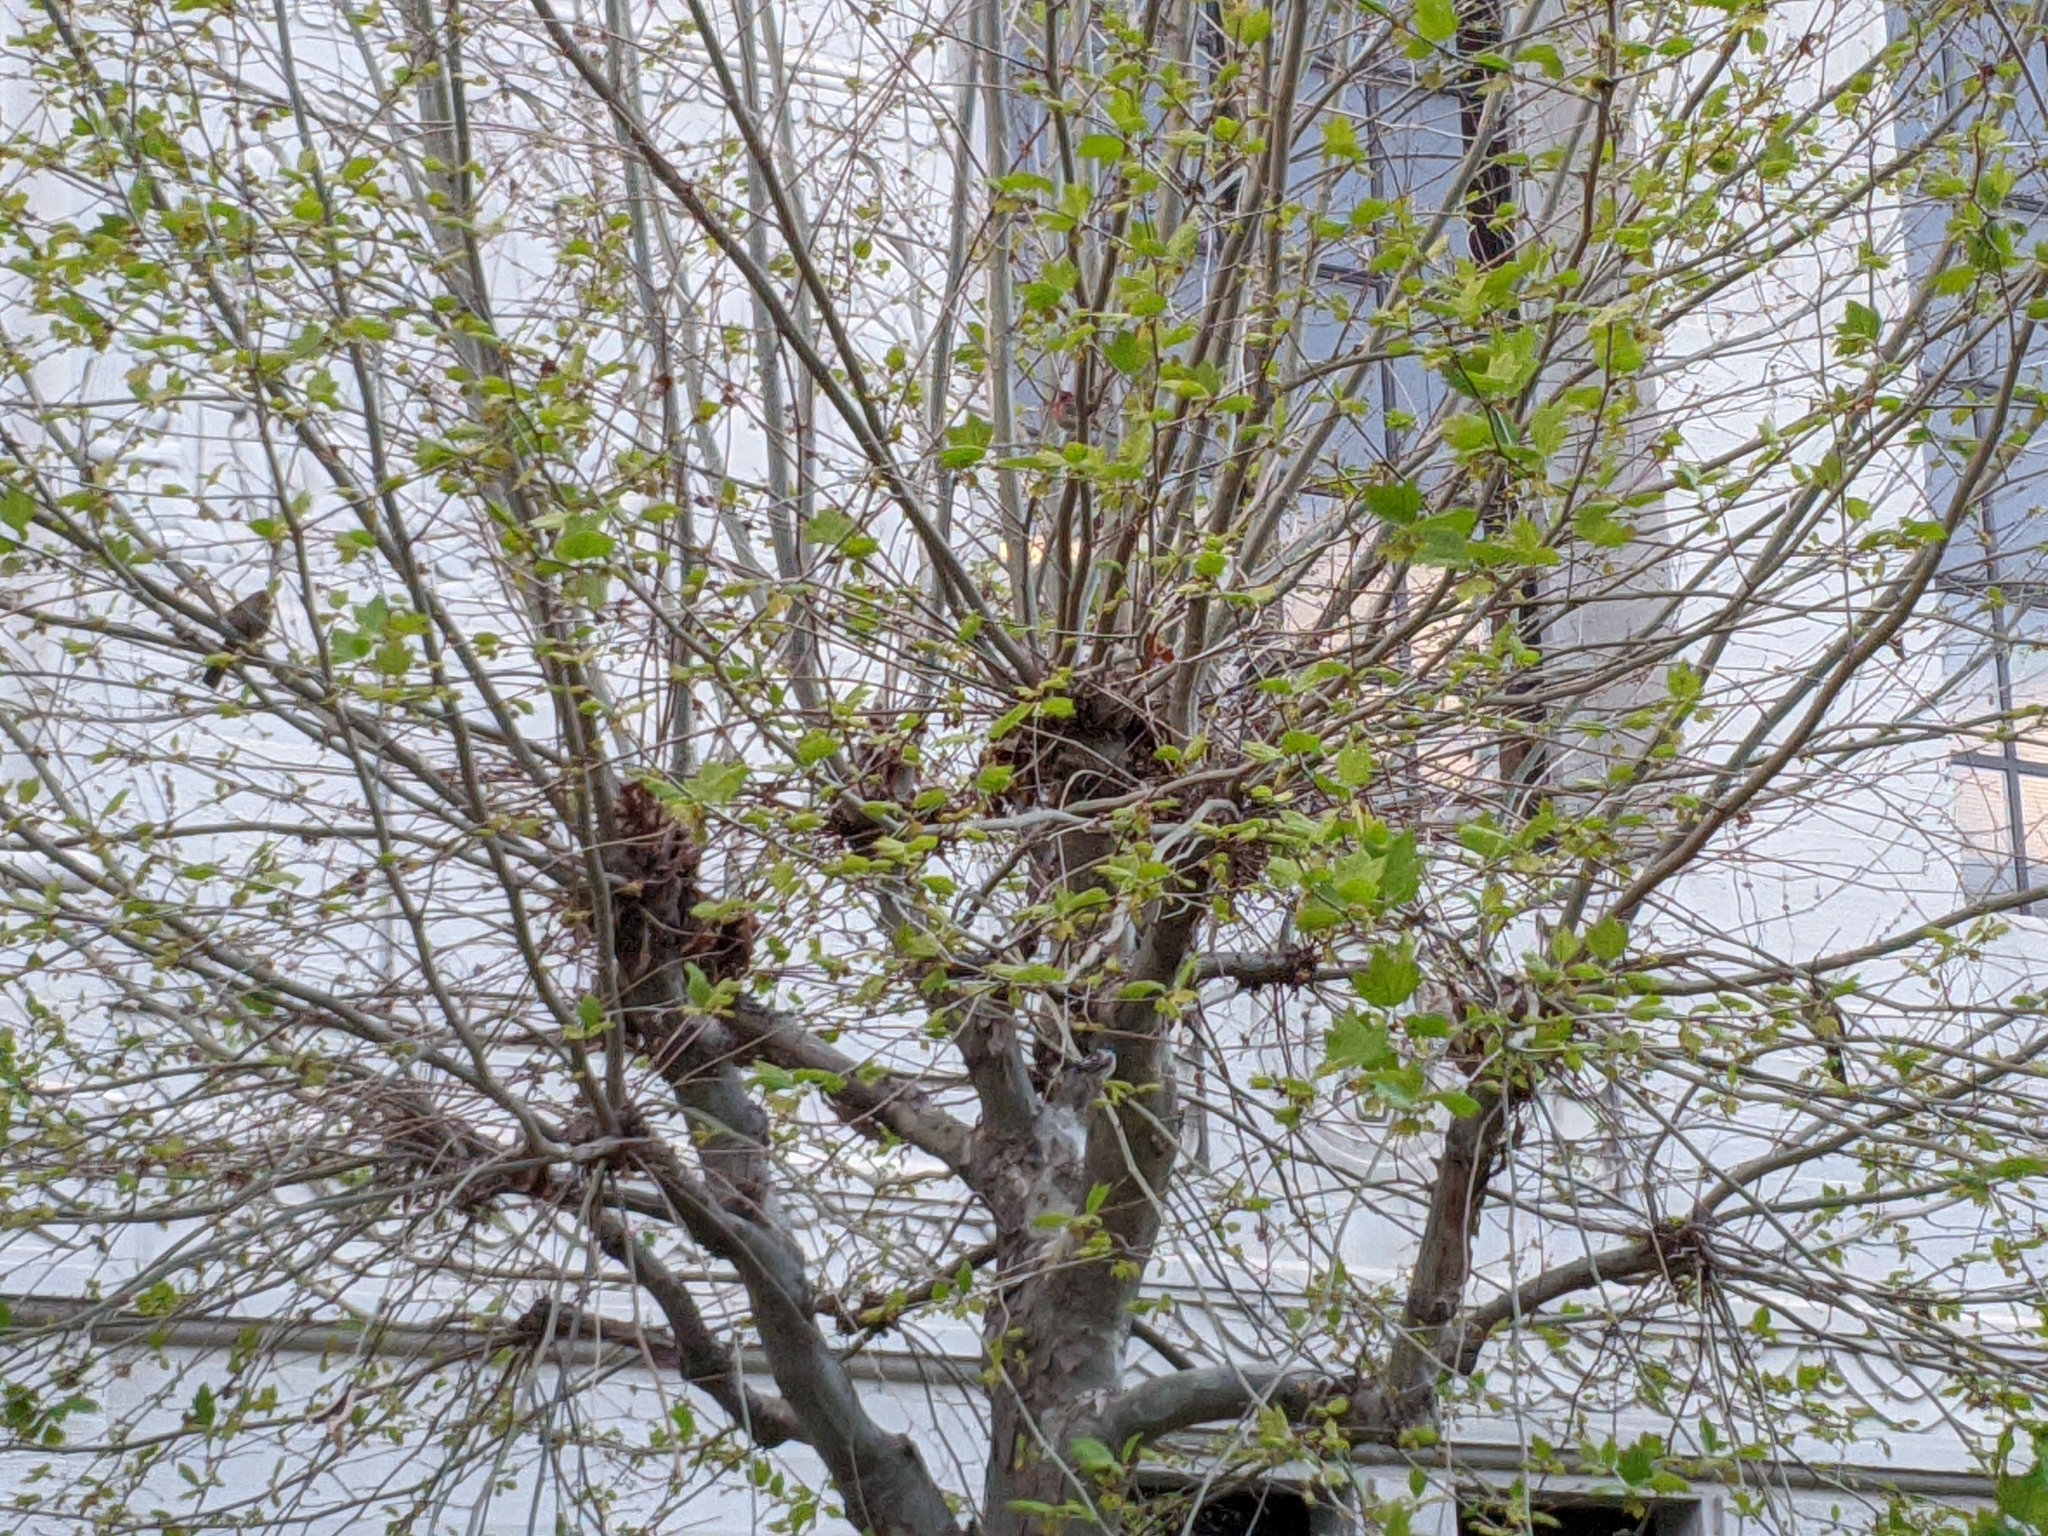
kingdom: Animalia
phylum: Chordata
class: Aves
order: Passeriformes
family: Passerellidae
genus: Melozone
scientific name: Melozone crissalis
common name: California towhee
